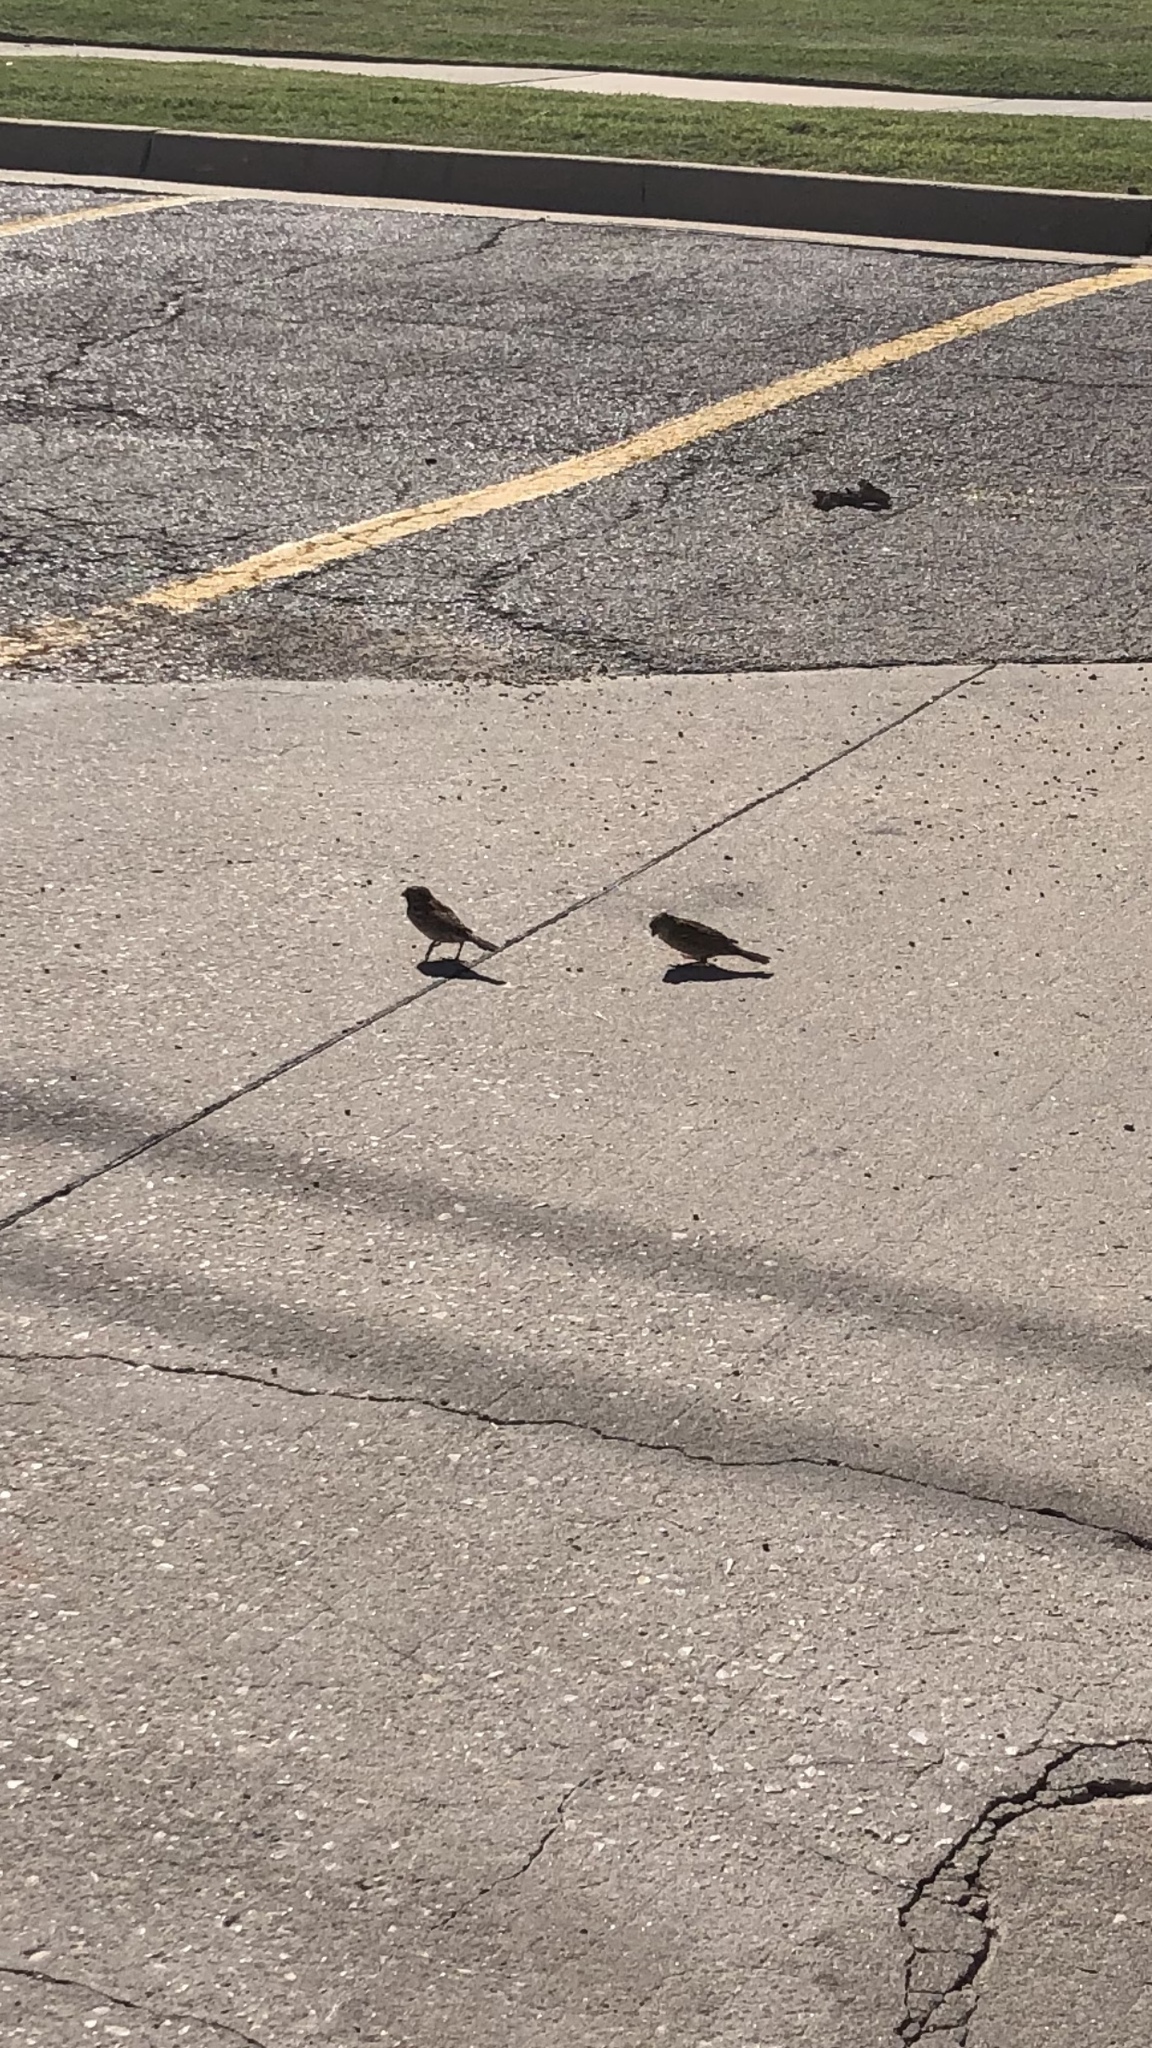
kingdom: Animalia
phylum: Chordata
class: Aves
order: Passeriformes
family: Passeridae
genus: Passer
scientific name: Passer domesticus
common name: House sparrow
